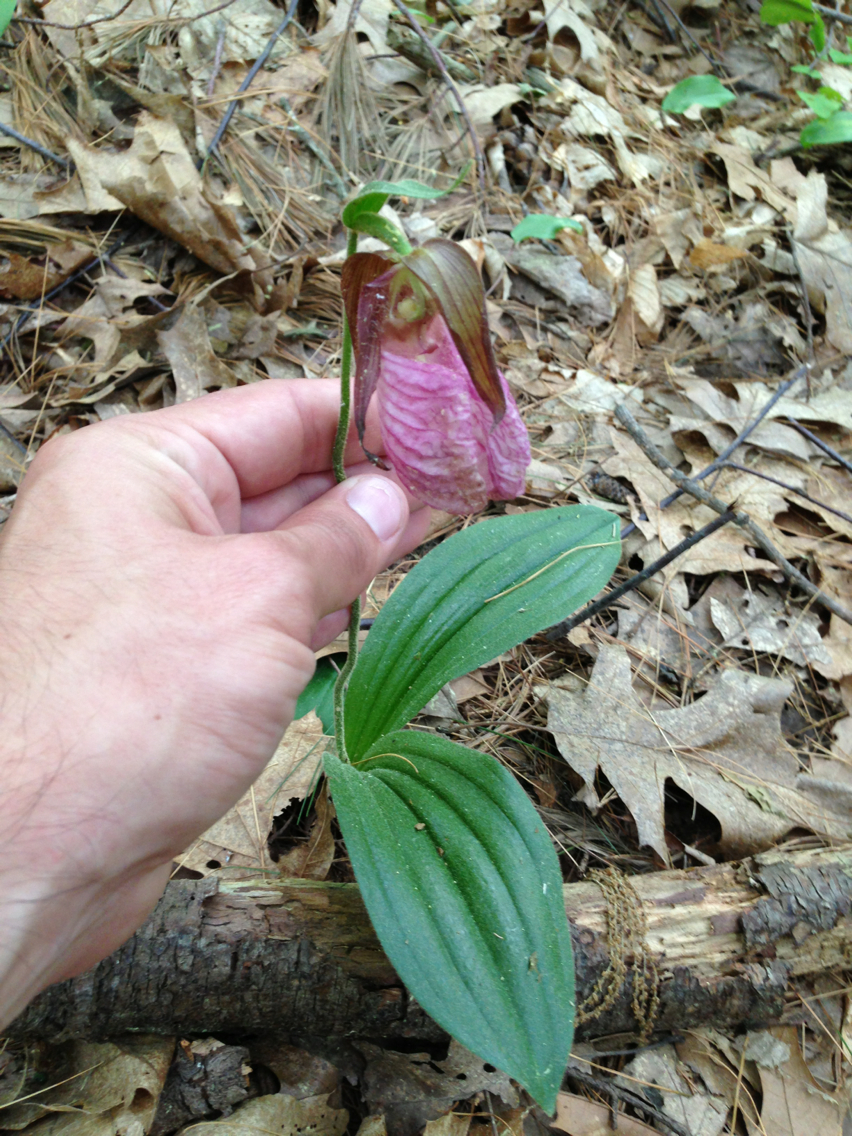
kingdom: Plantae
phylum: Tracheophyta
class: Liliopsida
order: Asparagales
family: Orchidaceae
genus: Cypripedium
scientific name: Cypripedium acaule
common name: Pink lady's-slipper
